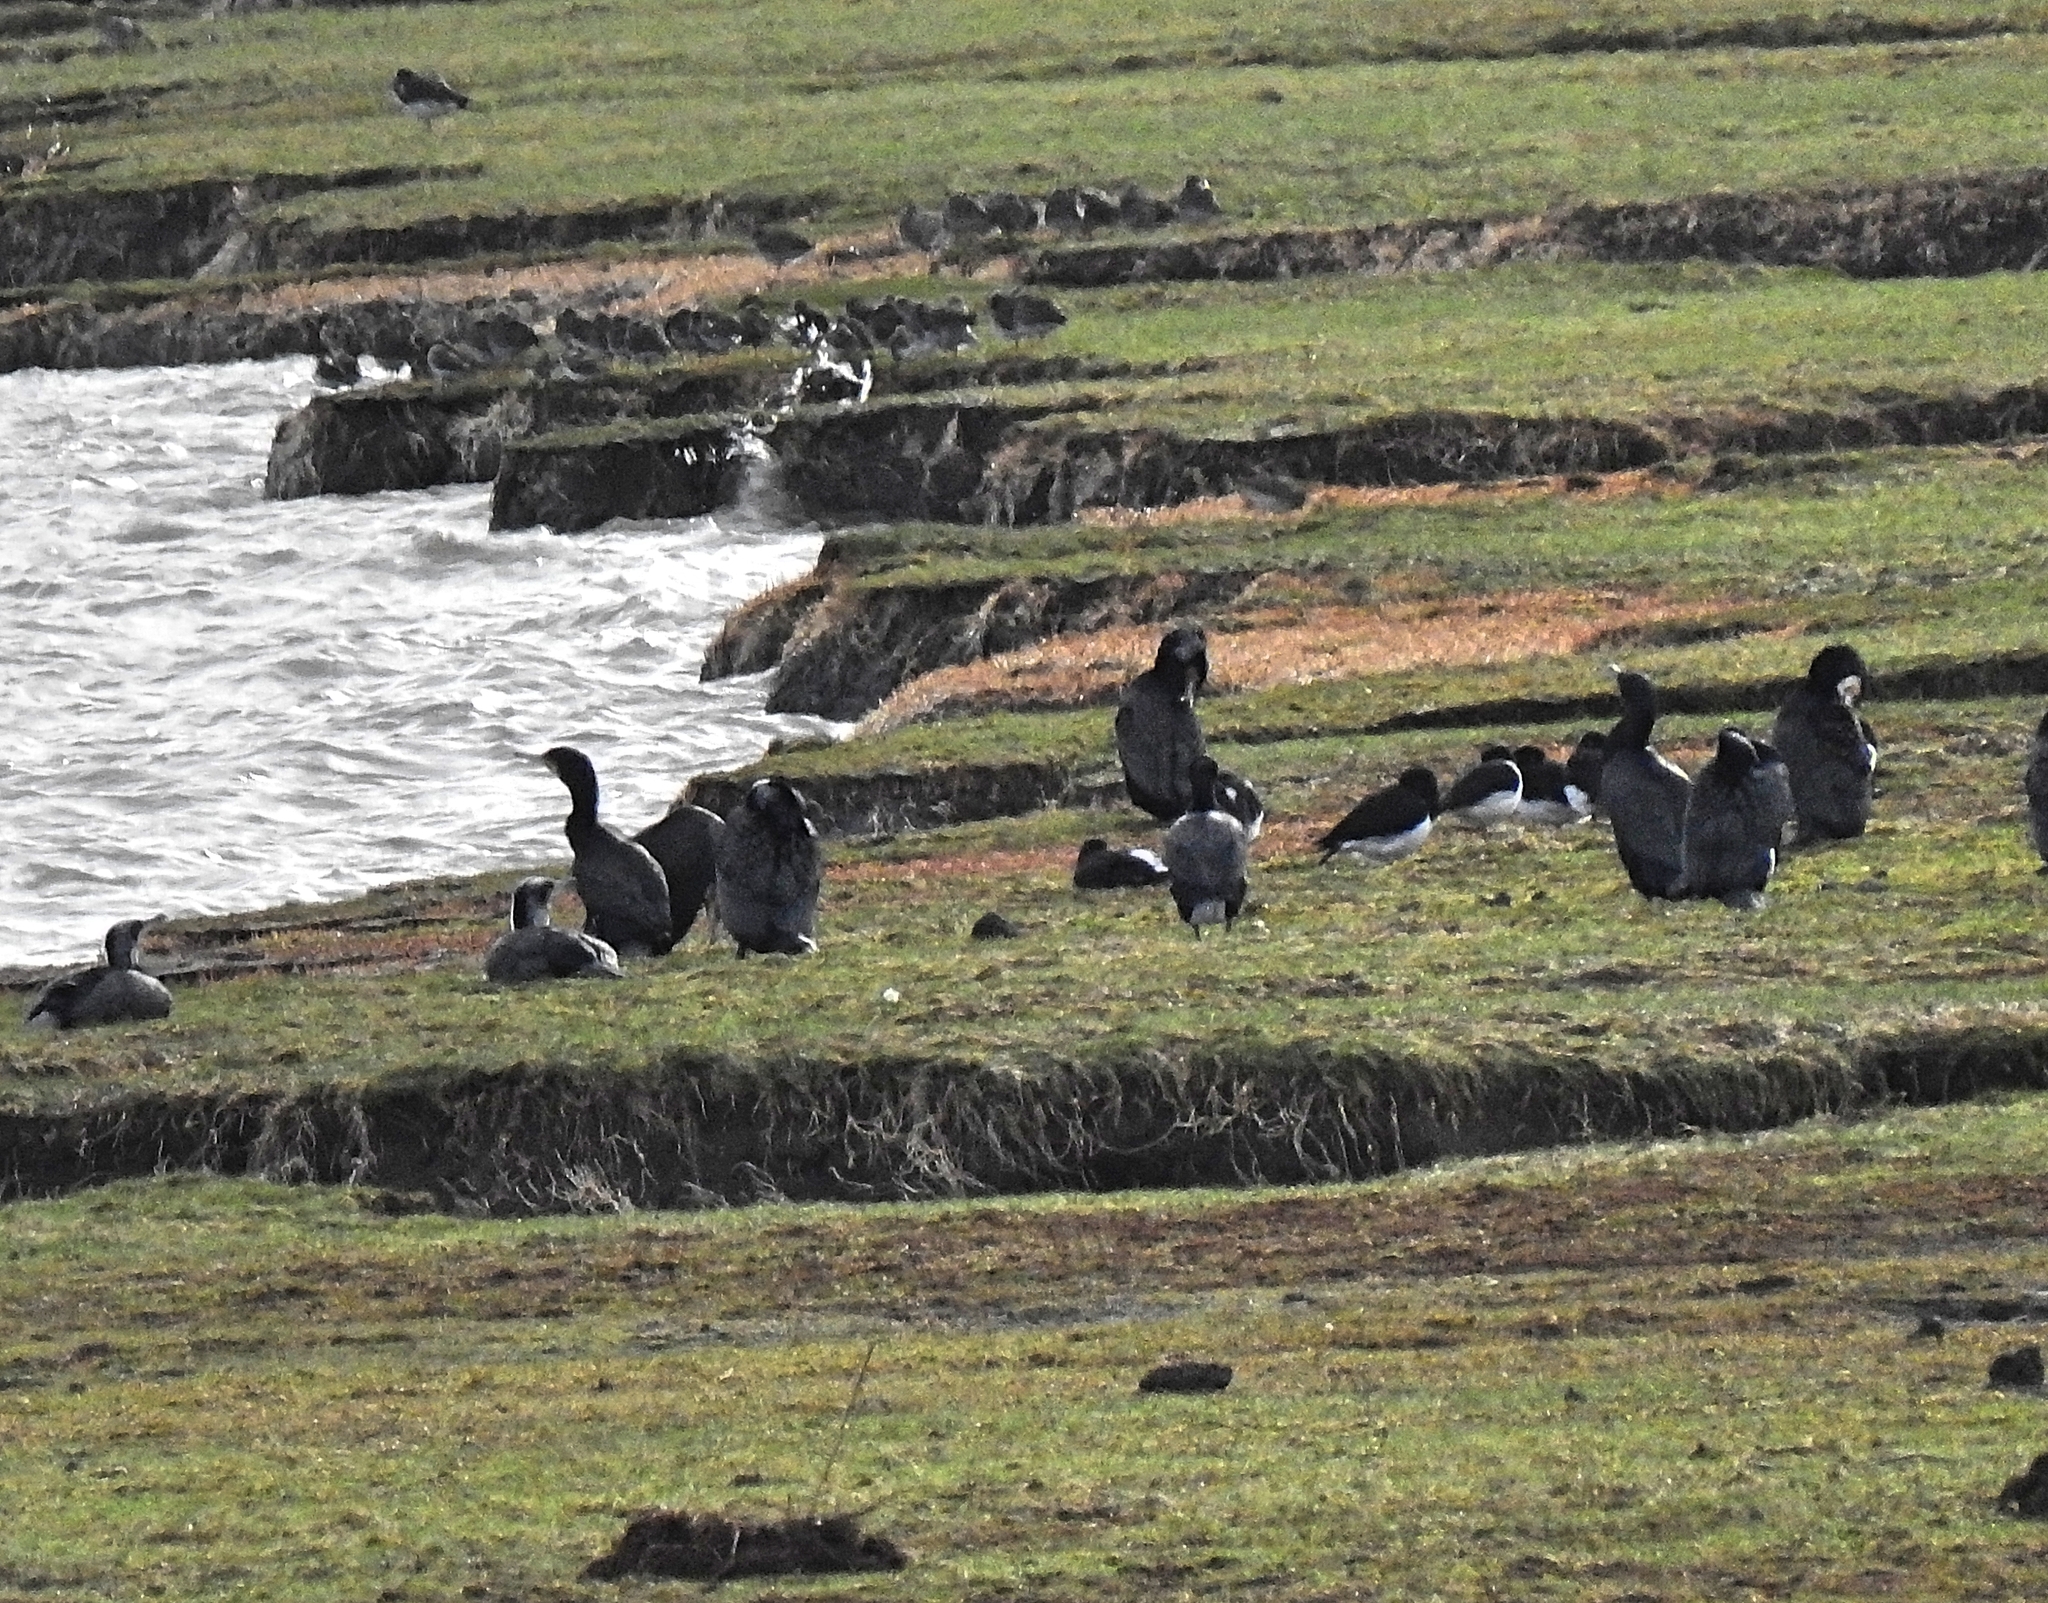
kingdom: Animalia
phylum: Chordata
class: Aves
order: Charadriiformes
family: Haematopodidae
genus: Haematopus
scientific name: Haematopus ostralegus
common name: Eurasian oystercatcher
